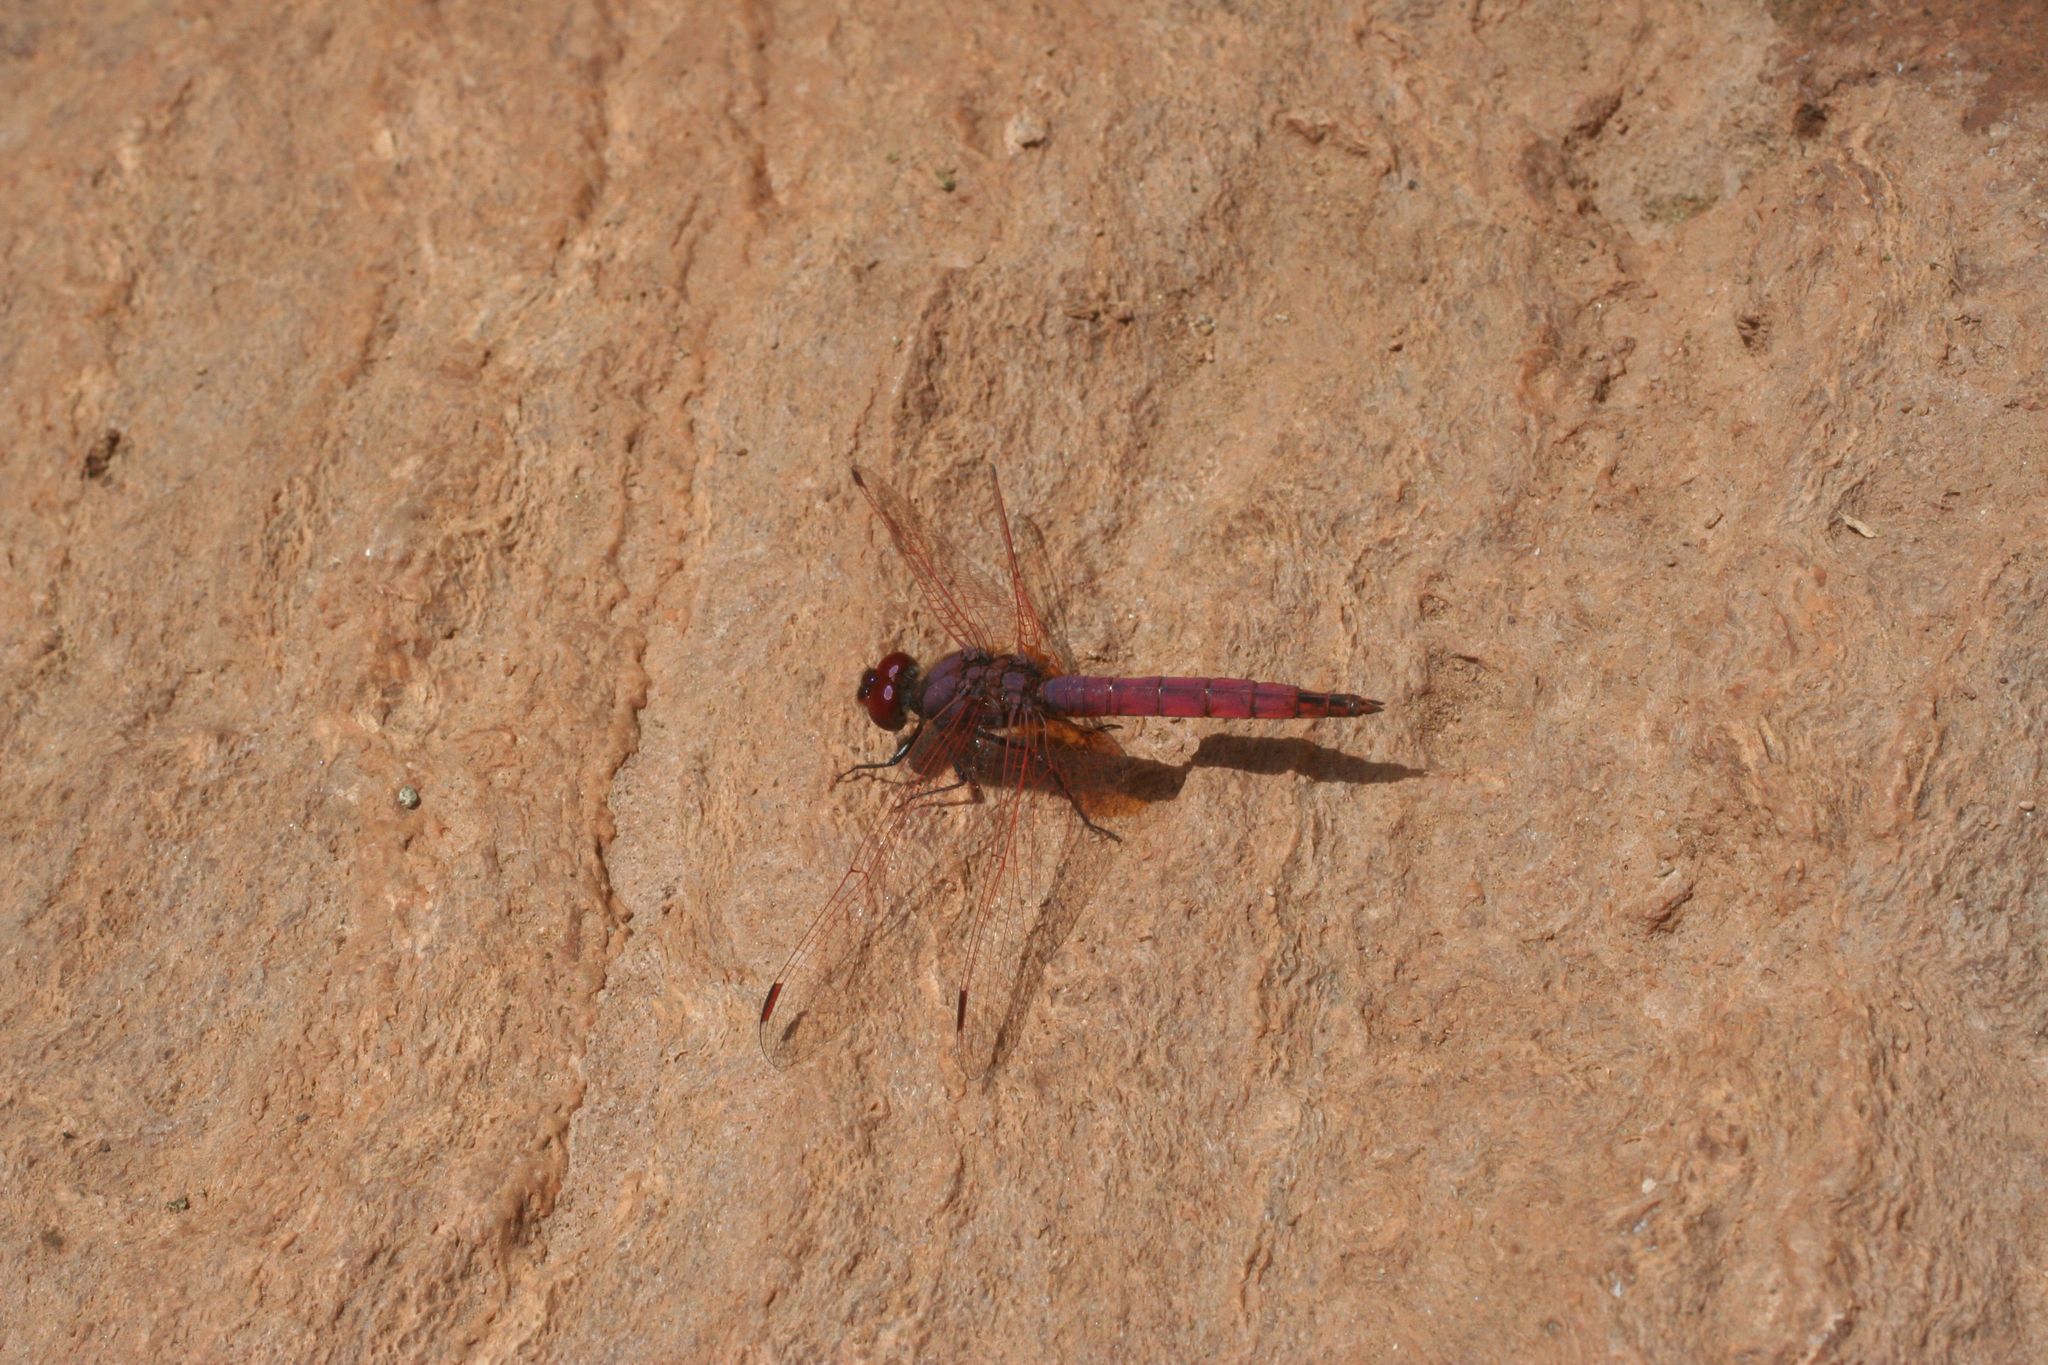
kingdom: Animalia
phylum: Arthropoda
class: Insecta
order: Odonata
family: Libellulidae
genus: Trithemis
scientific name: Trithemis annulata
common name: Violet dropwing
